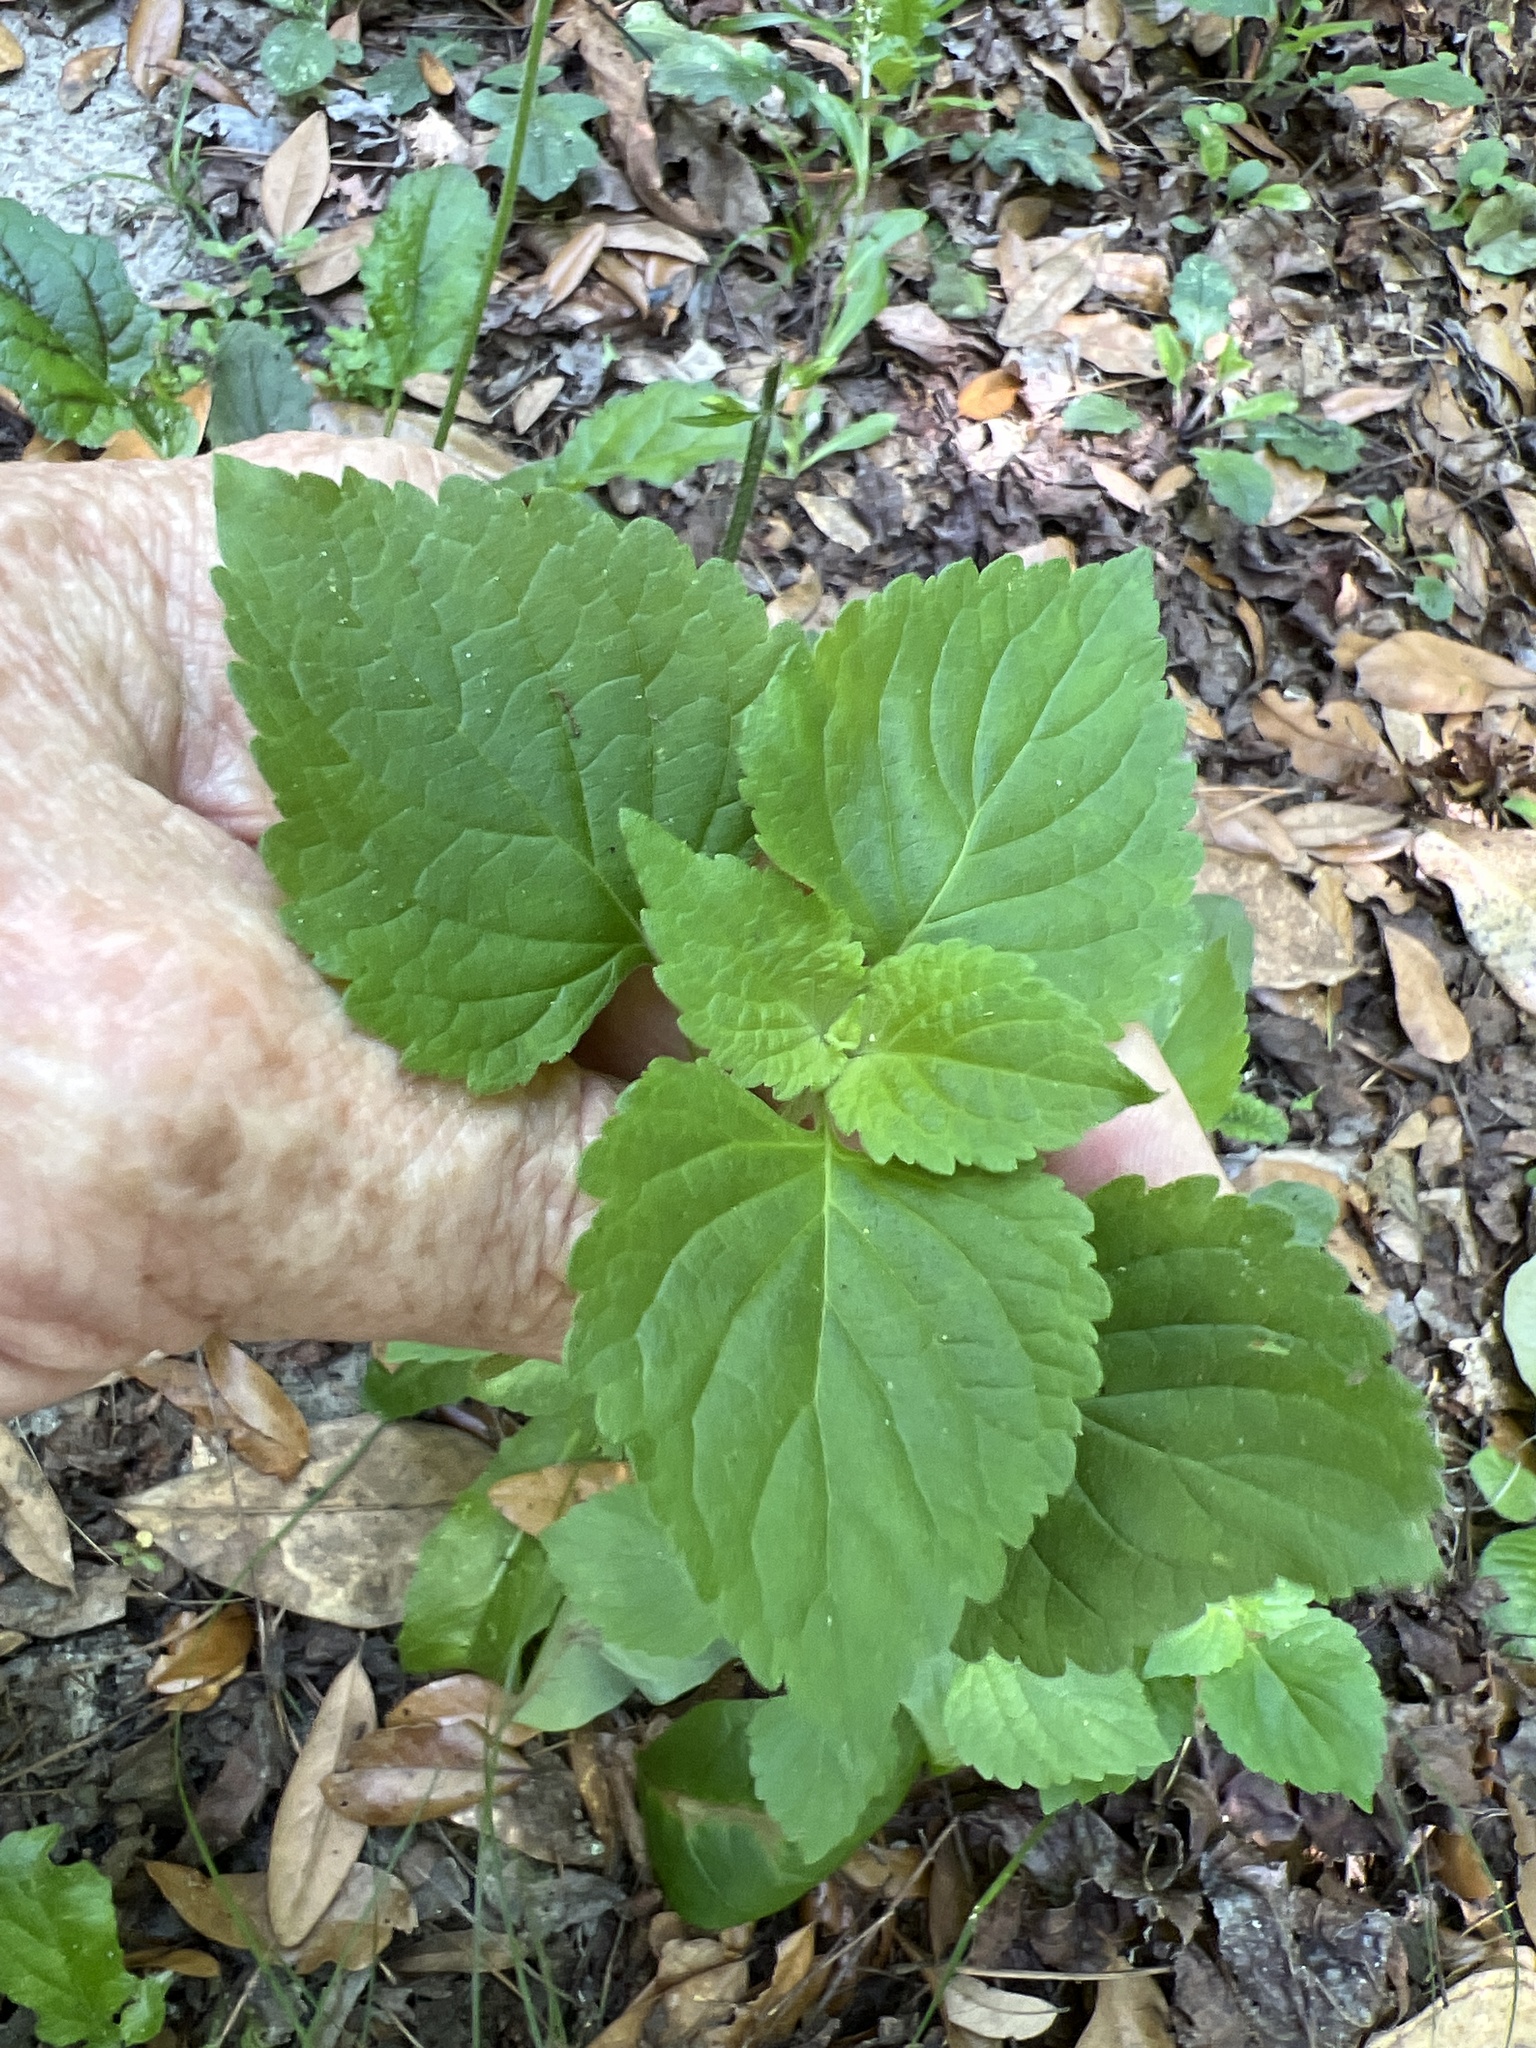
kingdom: Plantae
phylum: Tracheophyta
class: Magnoliopsida
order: Lamiales
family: Lamiaceae
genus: Cantinoa
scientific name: Cantinoa mutabilis
